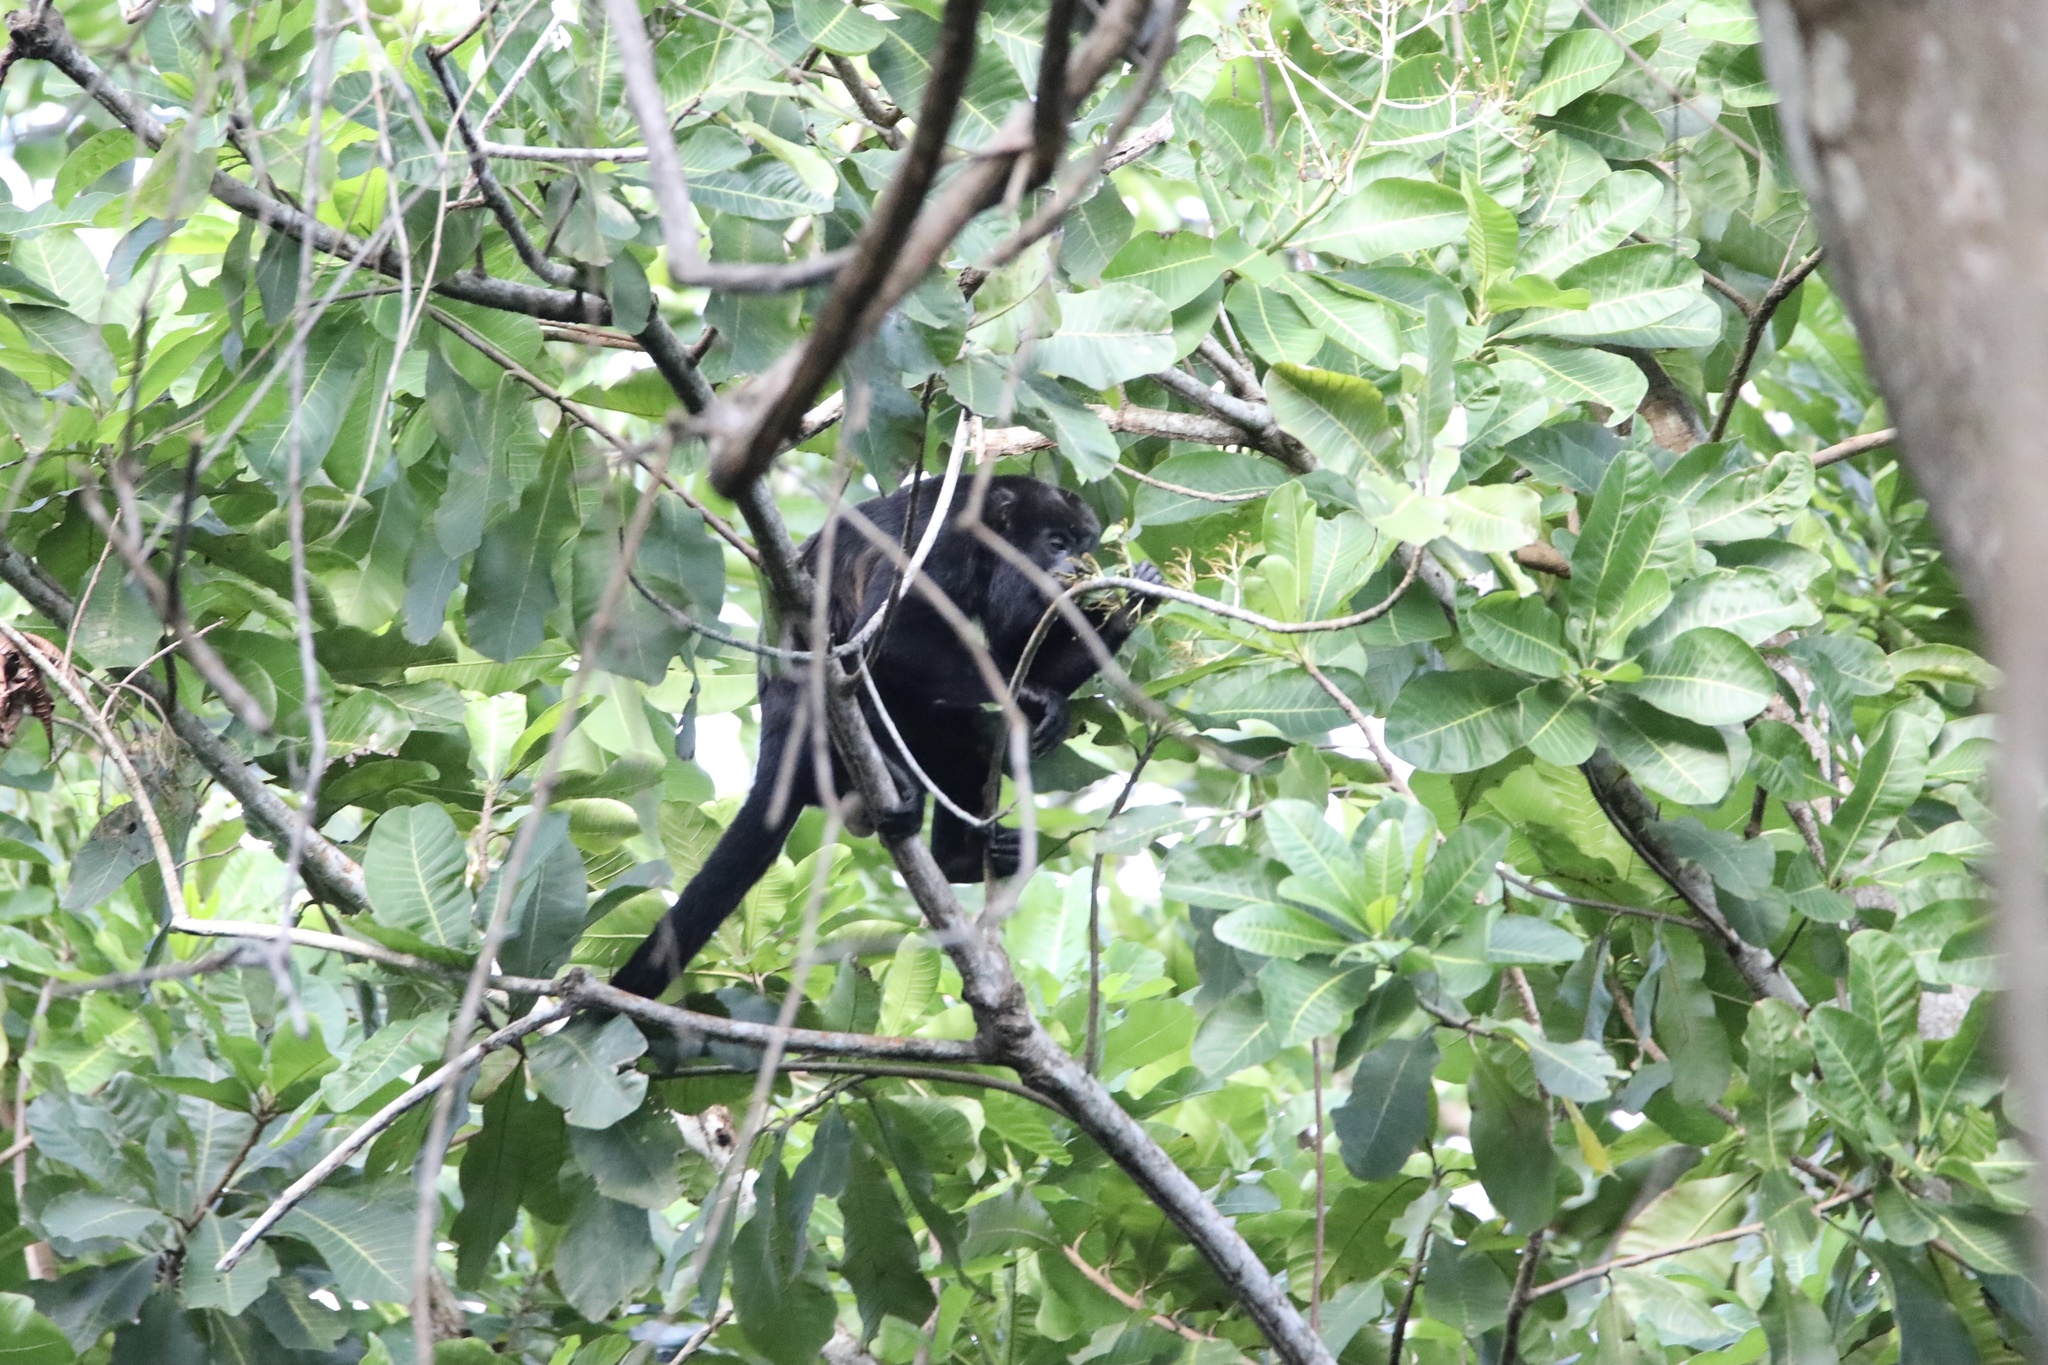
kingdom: Animalia
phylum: Chordata
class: Mammalia
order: Primates
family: Atelidae
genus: Alouatta
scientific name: Alouatta palliata
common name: Mantled howler
